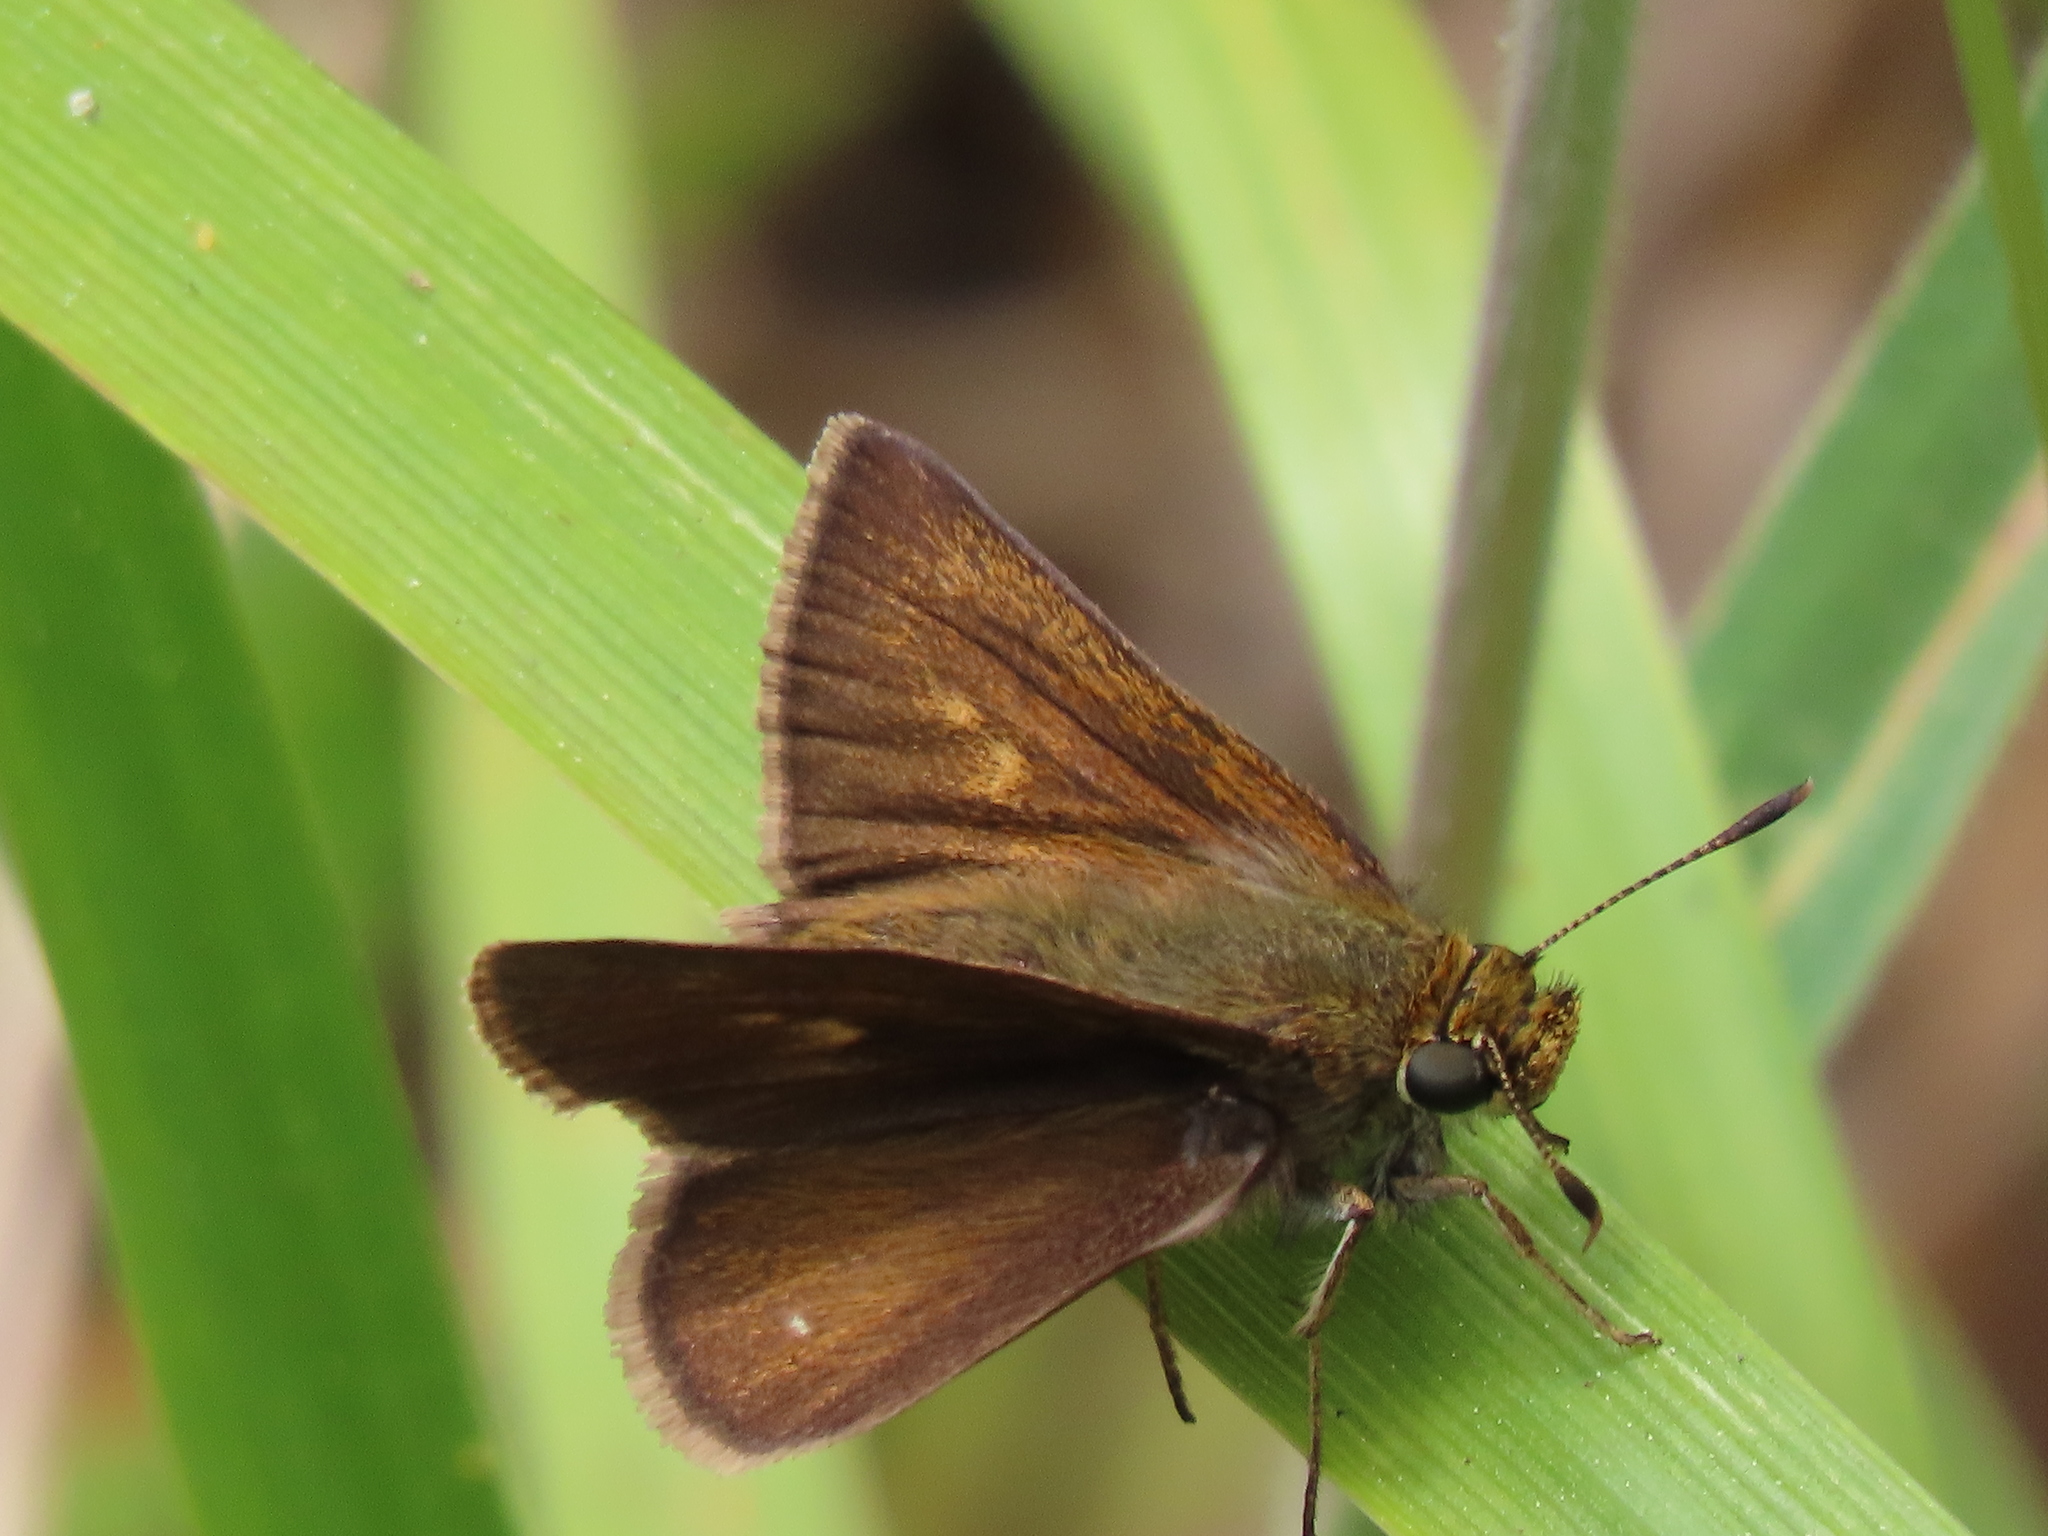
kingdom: Animalia
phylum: Arthropoda
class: Insecta
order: Lepidoptera
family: Hesperiidae
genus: Euphyes
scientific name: Euphyes vestris
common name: Dun skipper
